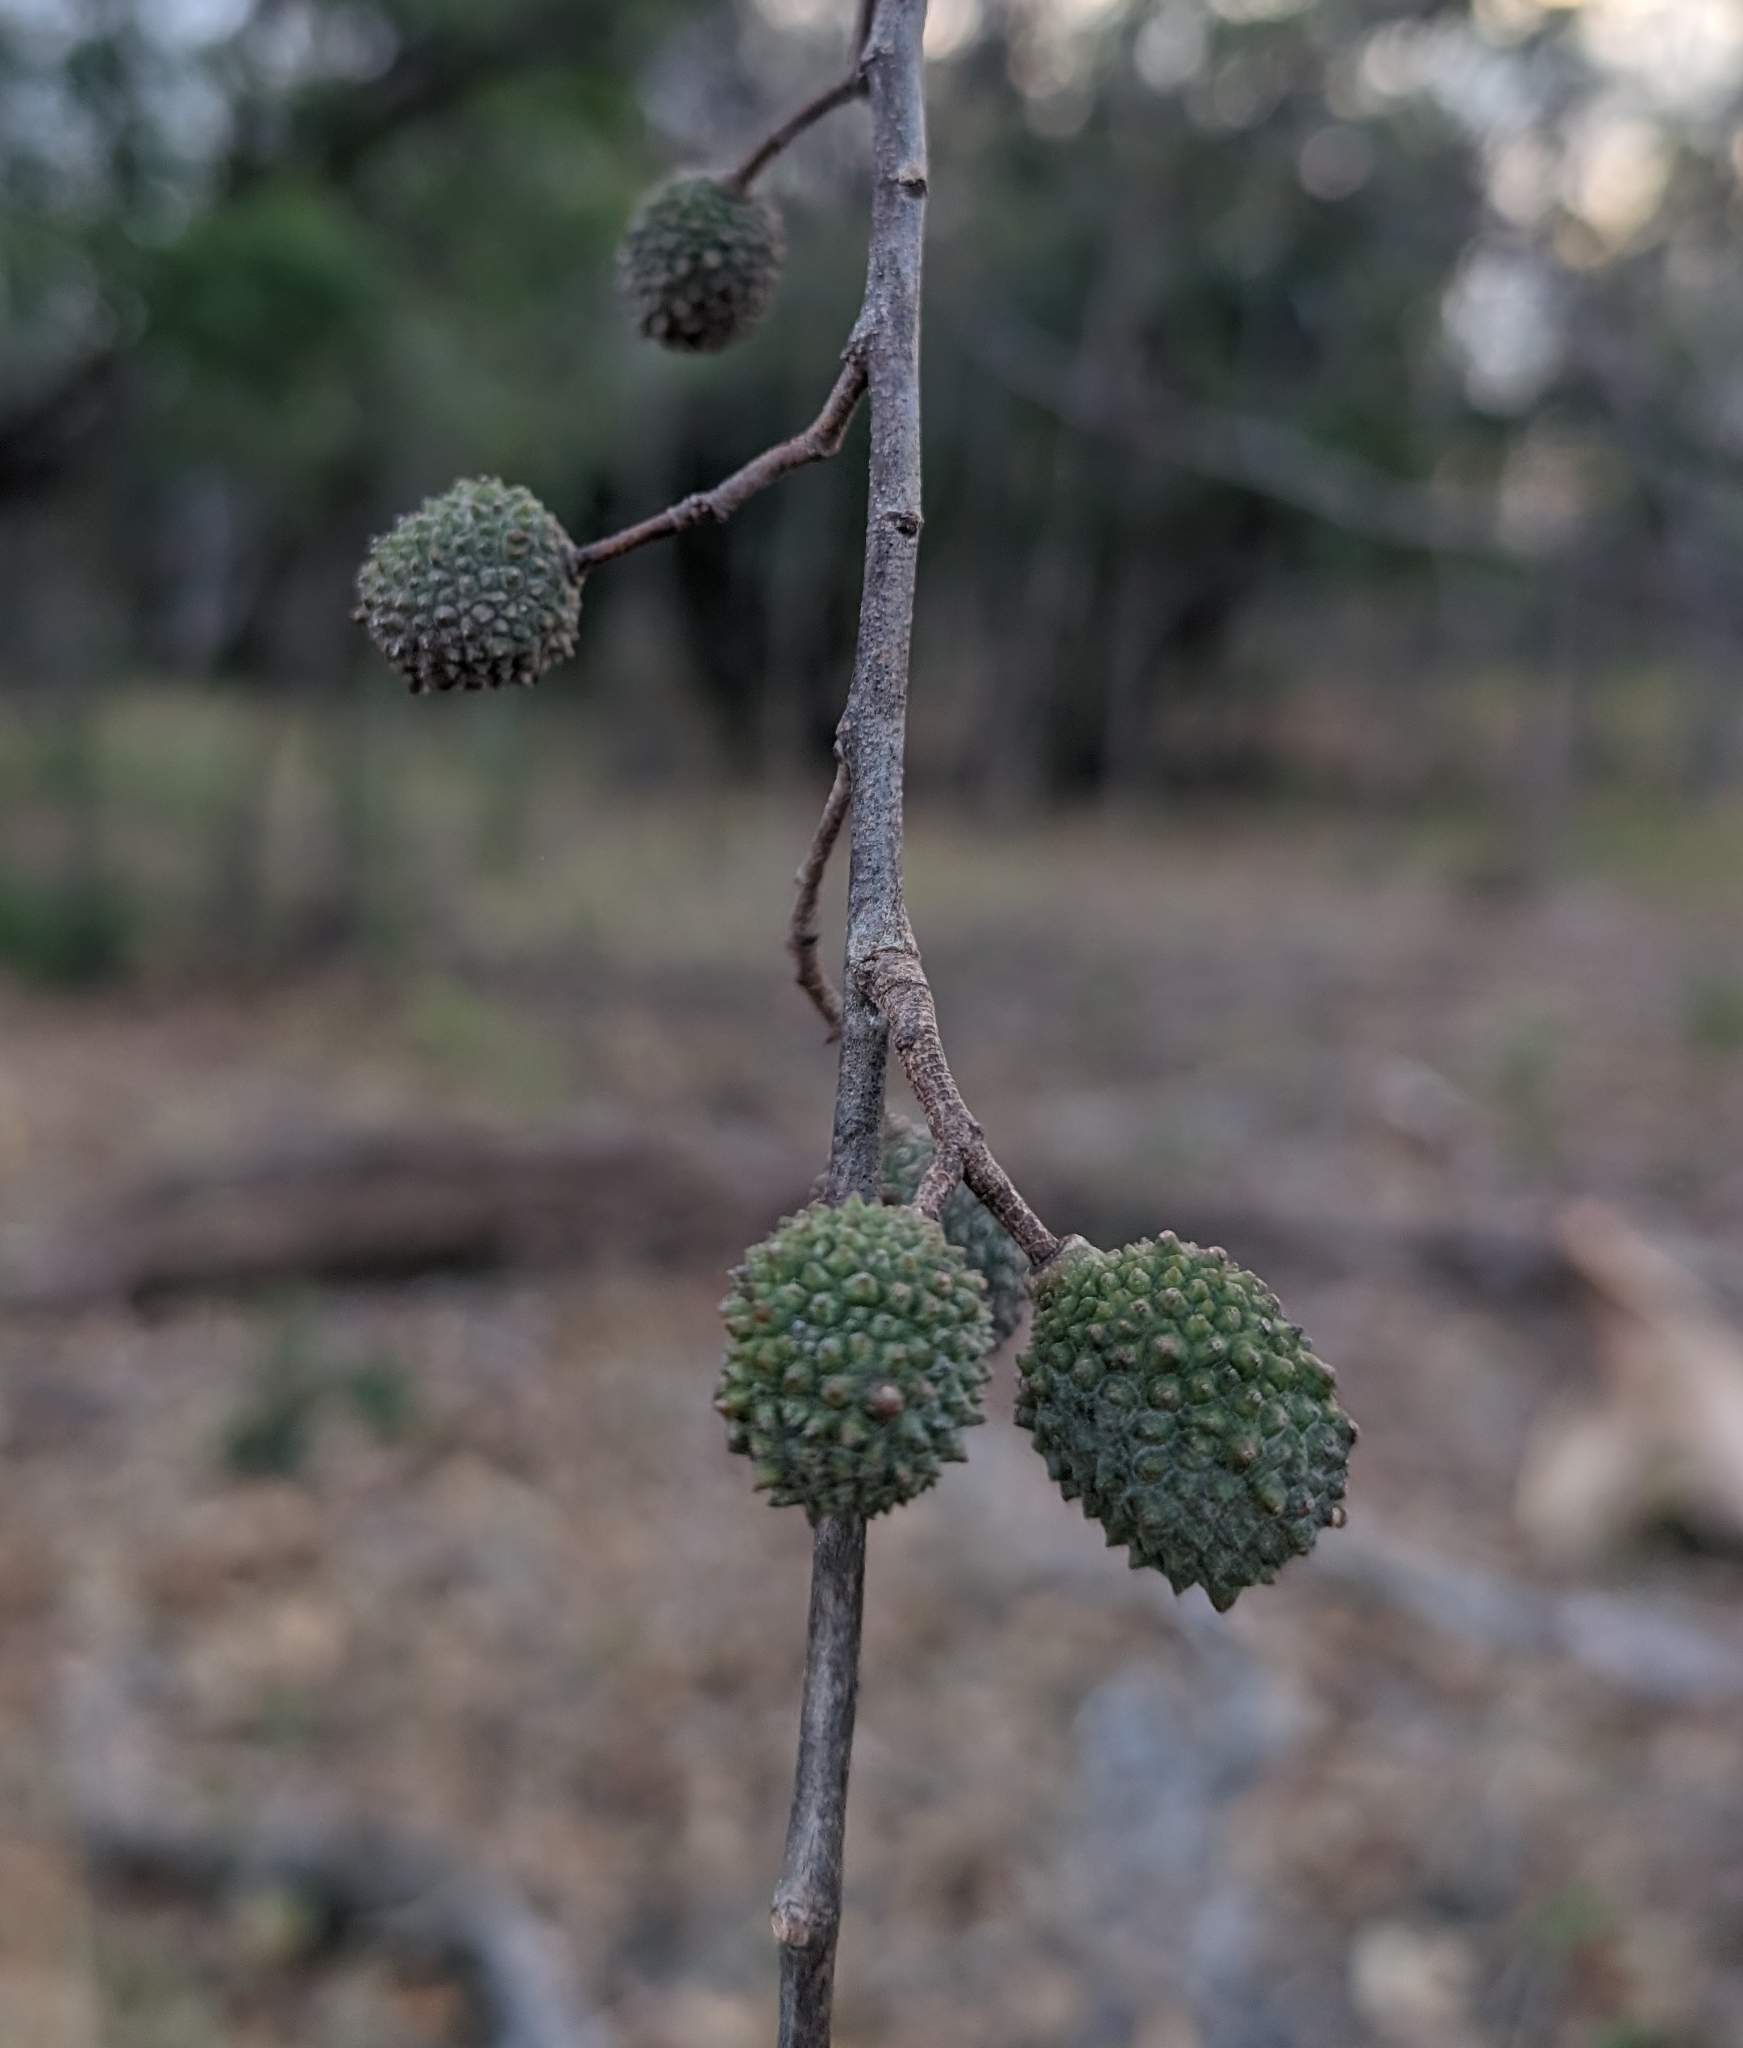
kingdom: Plantae
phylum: Tracheophyta
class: Magnoliopsida
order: Malvales
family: Malvaceae
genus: Guazuma
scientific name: Guazuma ulmifolia
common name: Bastard-cedar
